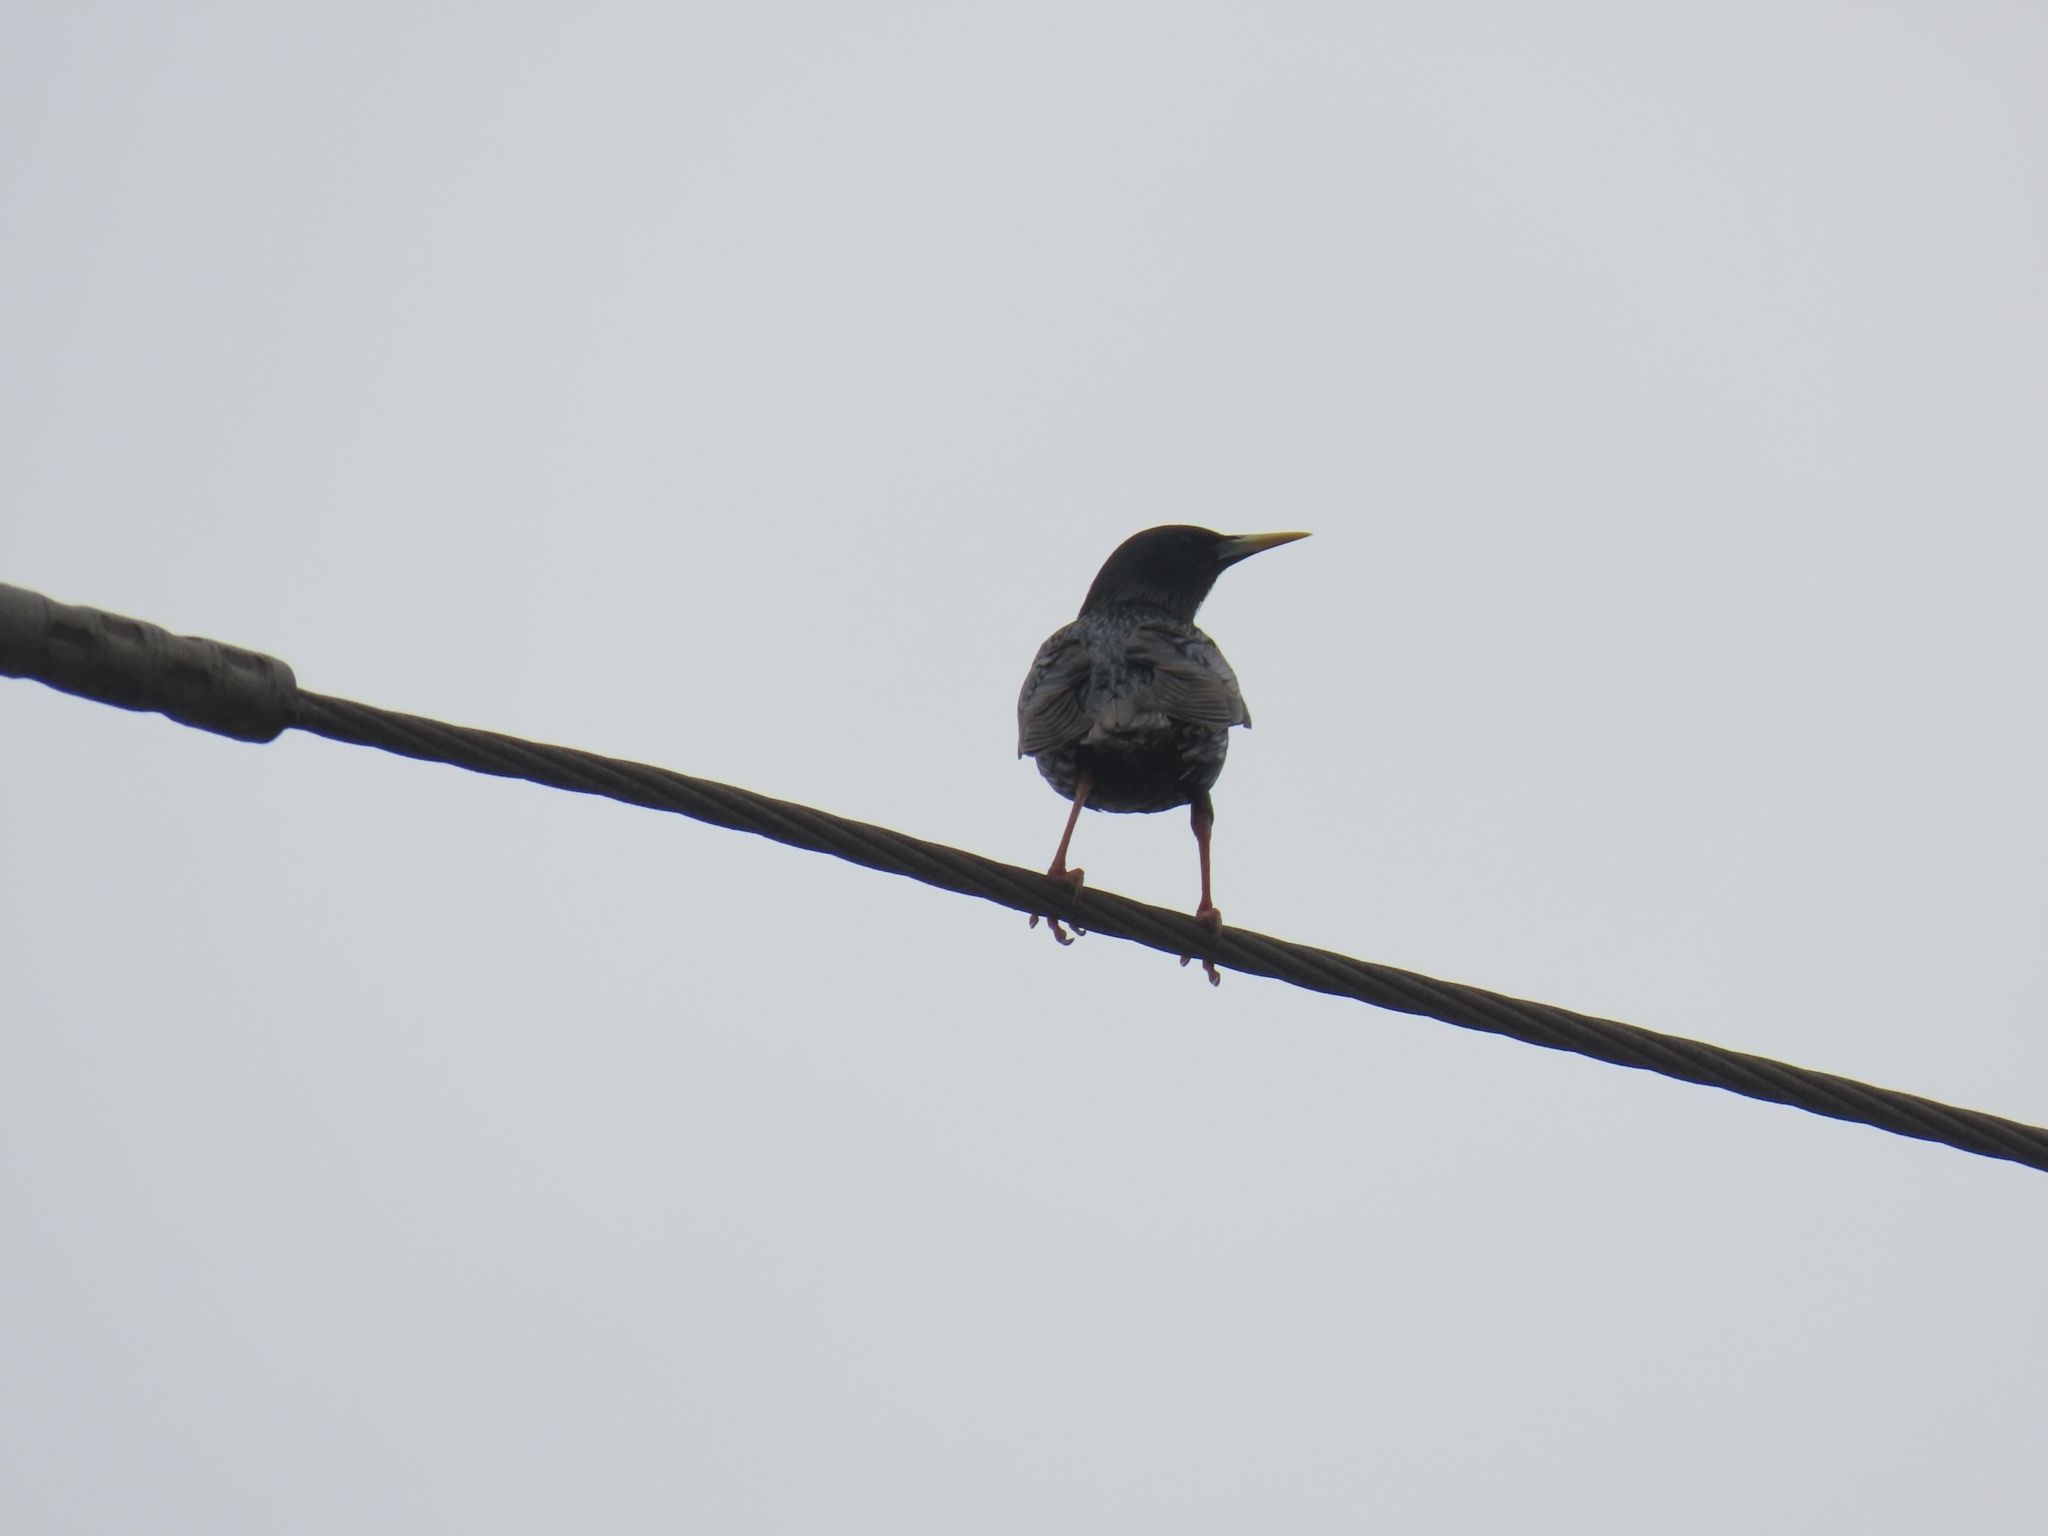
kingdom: Animalia
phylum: Chordata
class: Aves
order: Passeriformes
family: Sturnidae
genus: Sturnus
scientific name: Sturnus vulgaris
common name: Common starling
